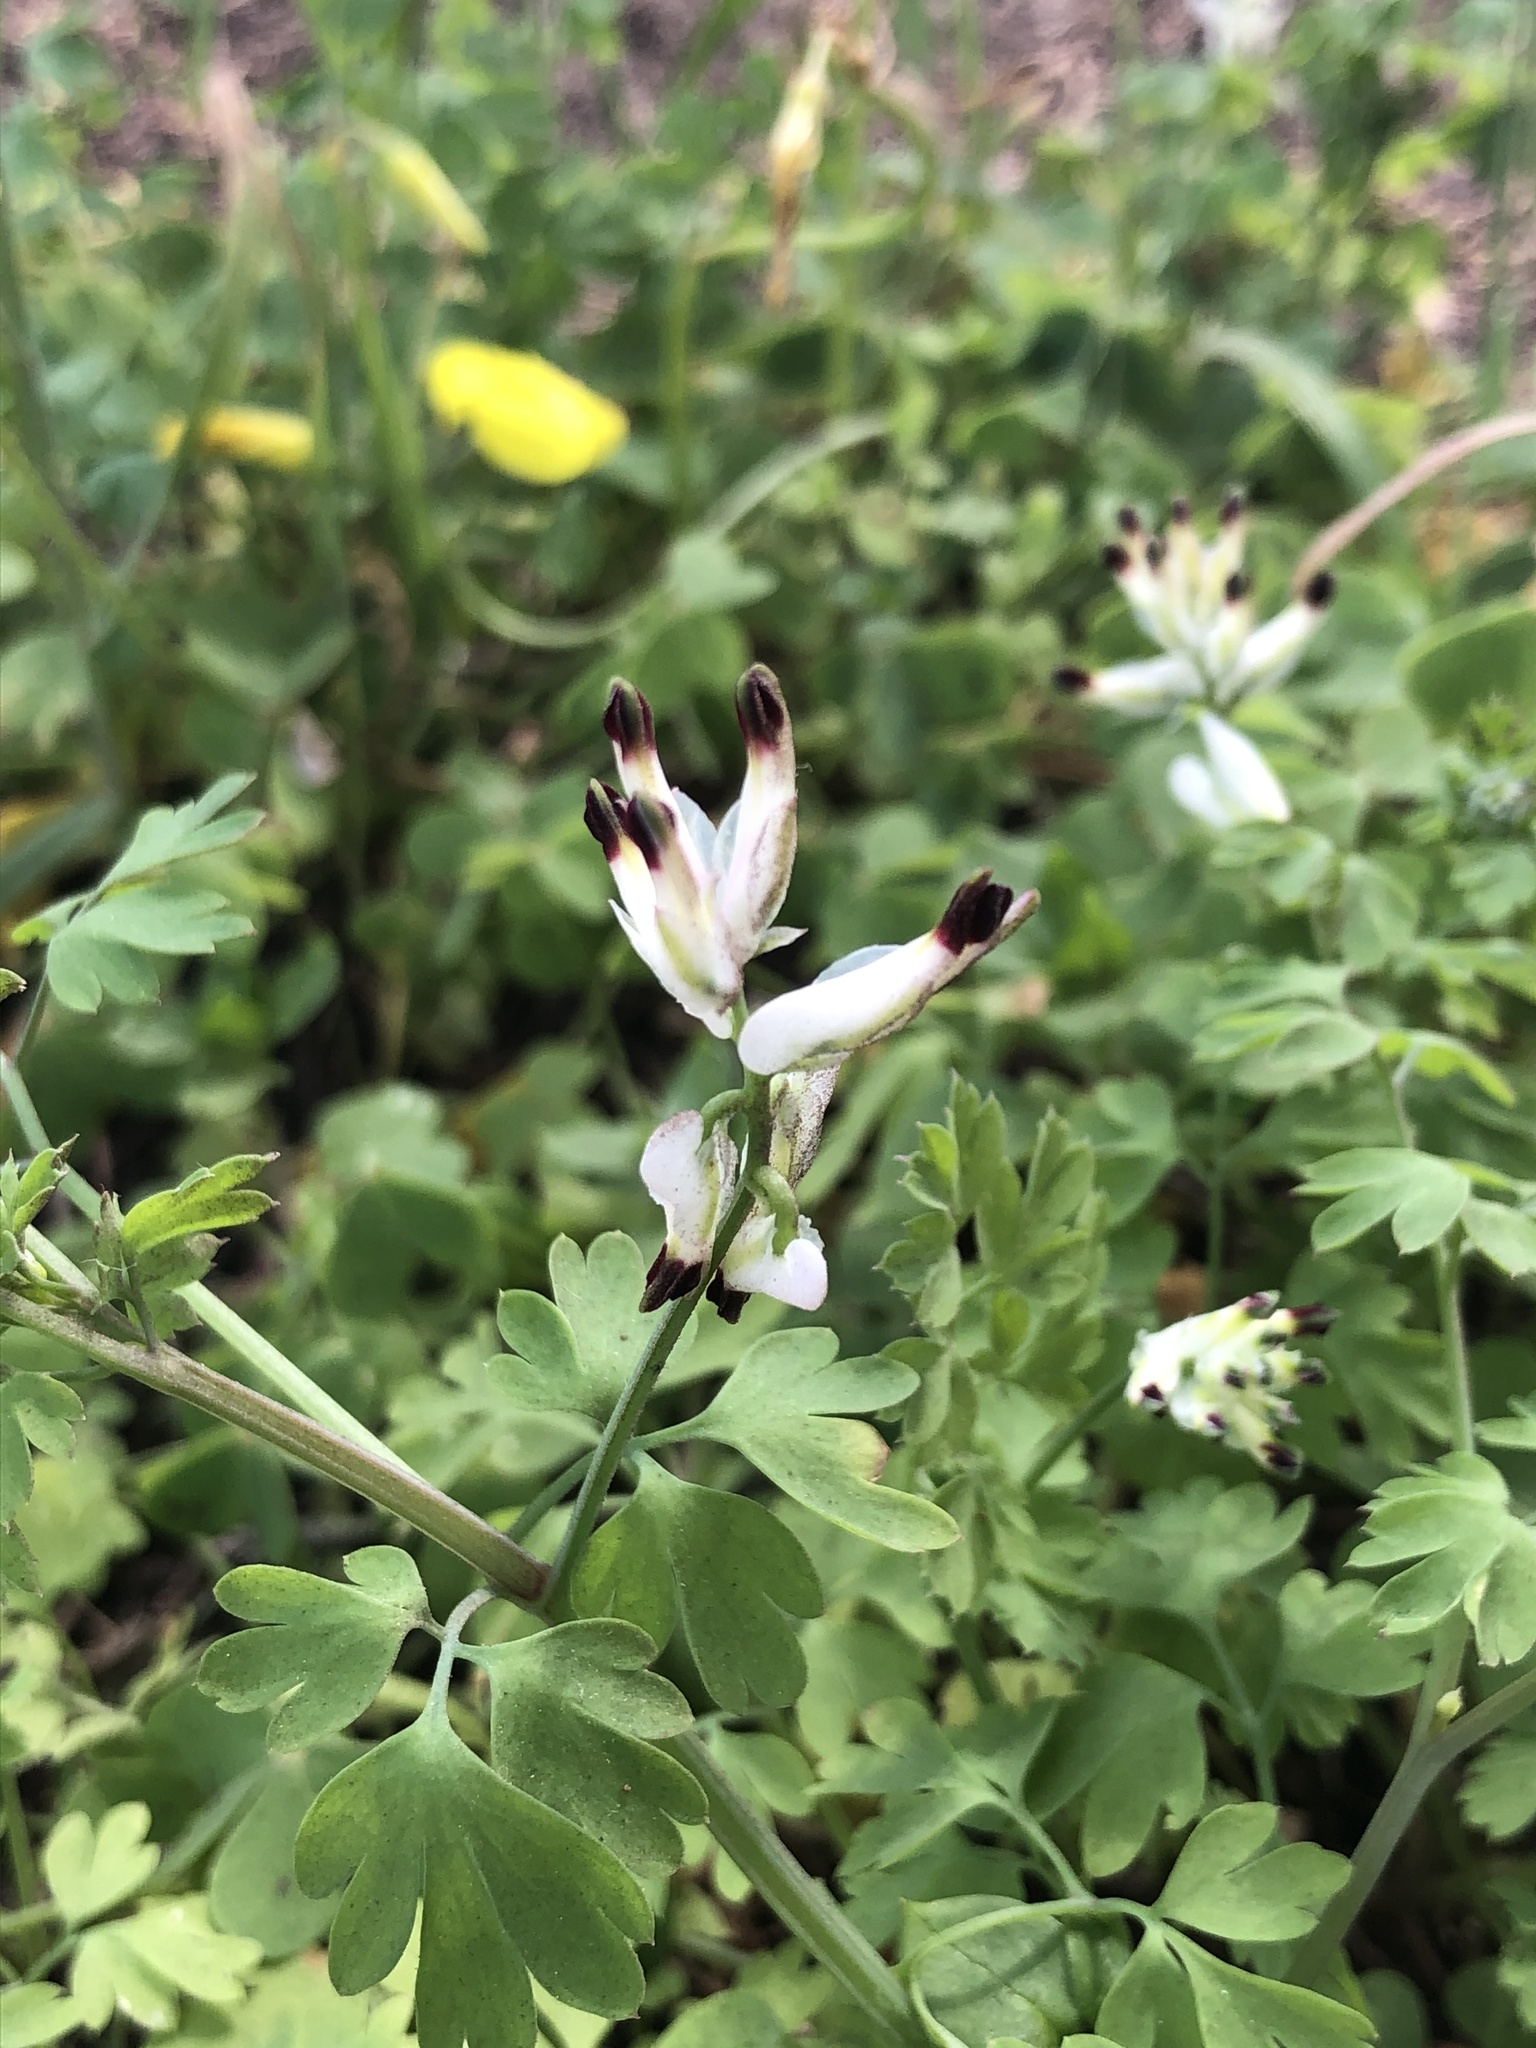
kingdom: Plantae
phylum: Tracheophyta
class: Magnoliopsida
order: Ranunculales
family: Papaveraceae
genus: Fumaria
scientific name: Fumaria capreolata
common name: White ramping-fumitory
